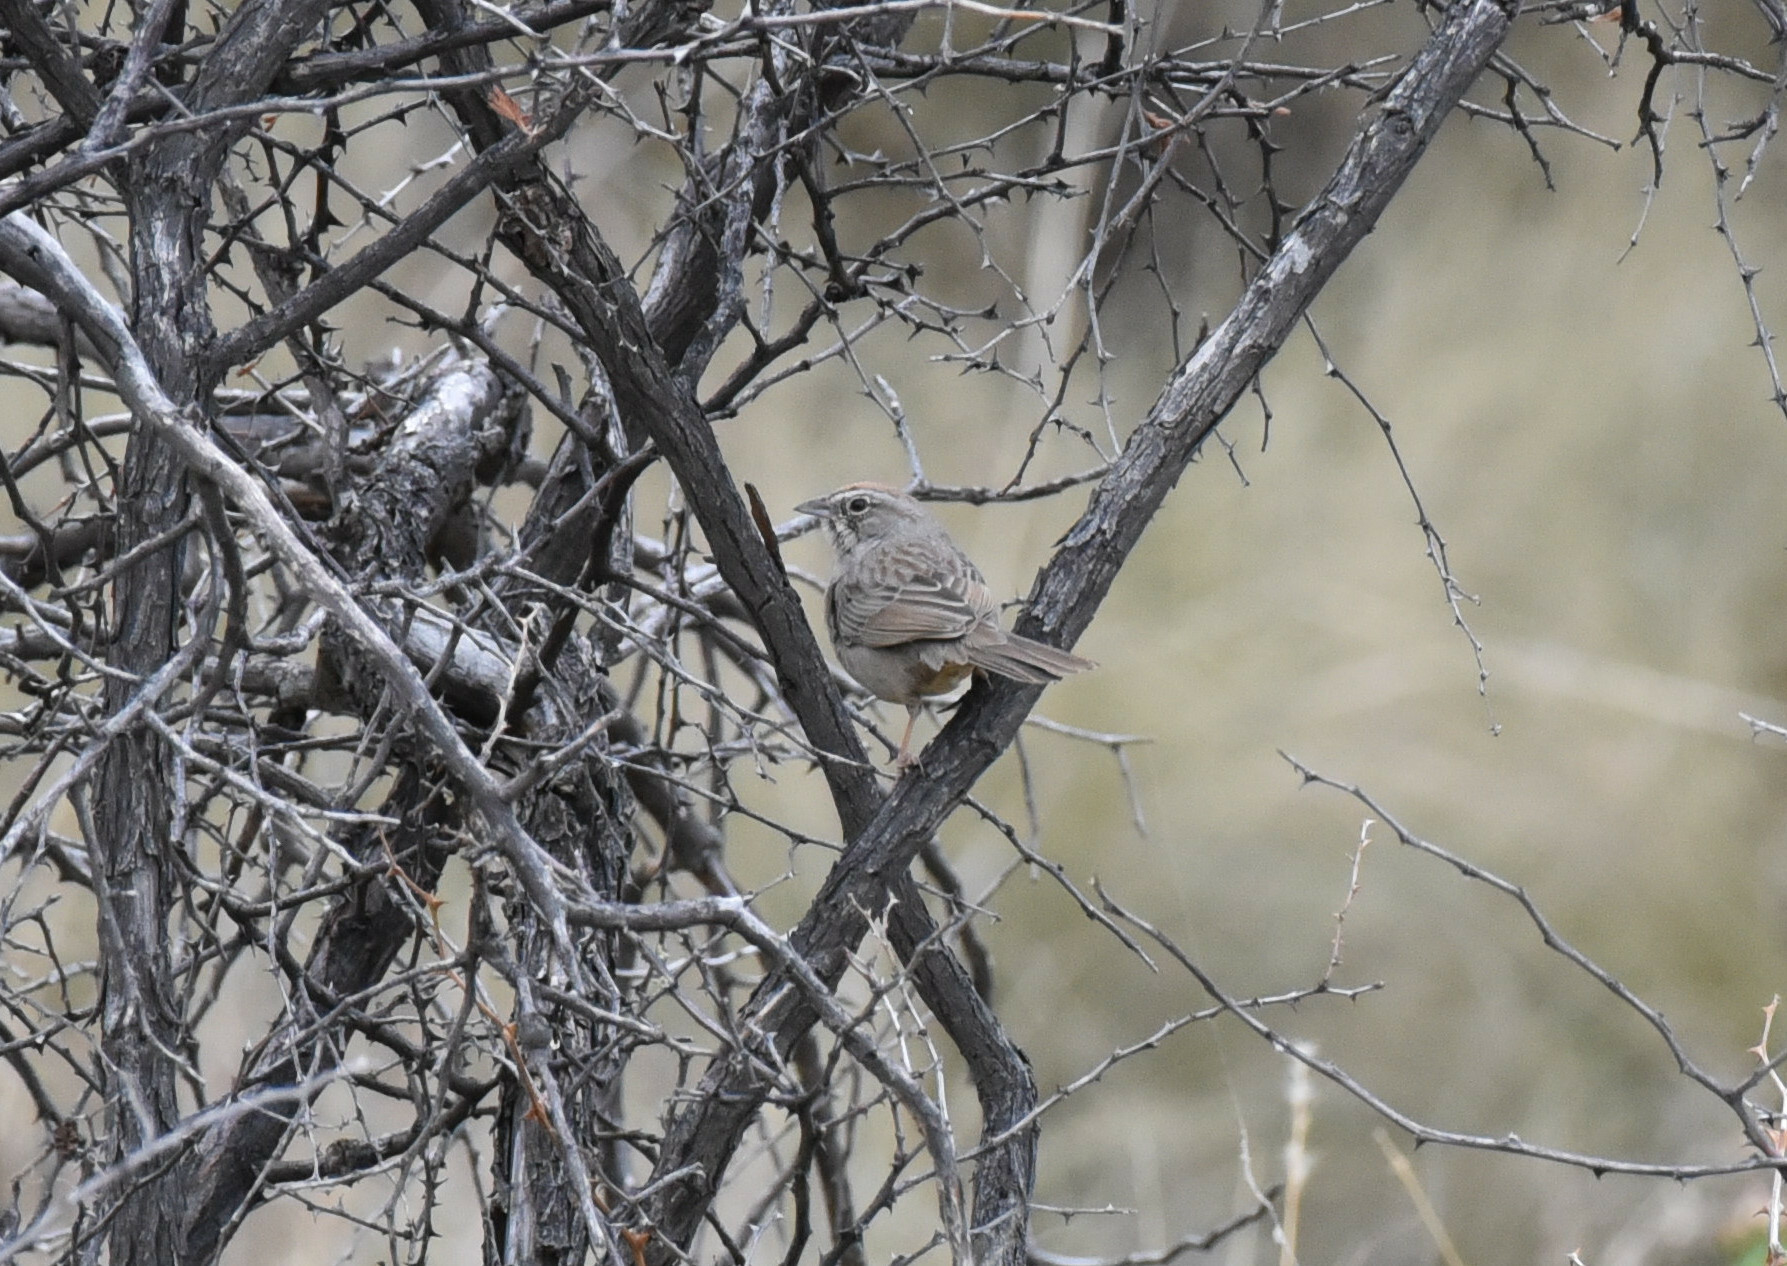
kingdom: Animalia
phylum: Chordata
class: Aves
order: Passeriformes
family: Passerellidae
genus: Aimophila
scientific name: Aimophila ruficeps
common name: Rufous-crowned sparrow
